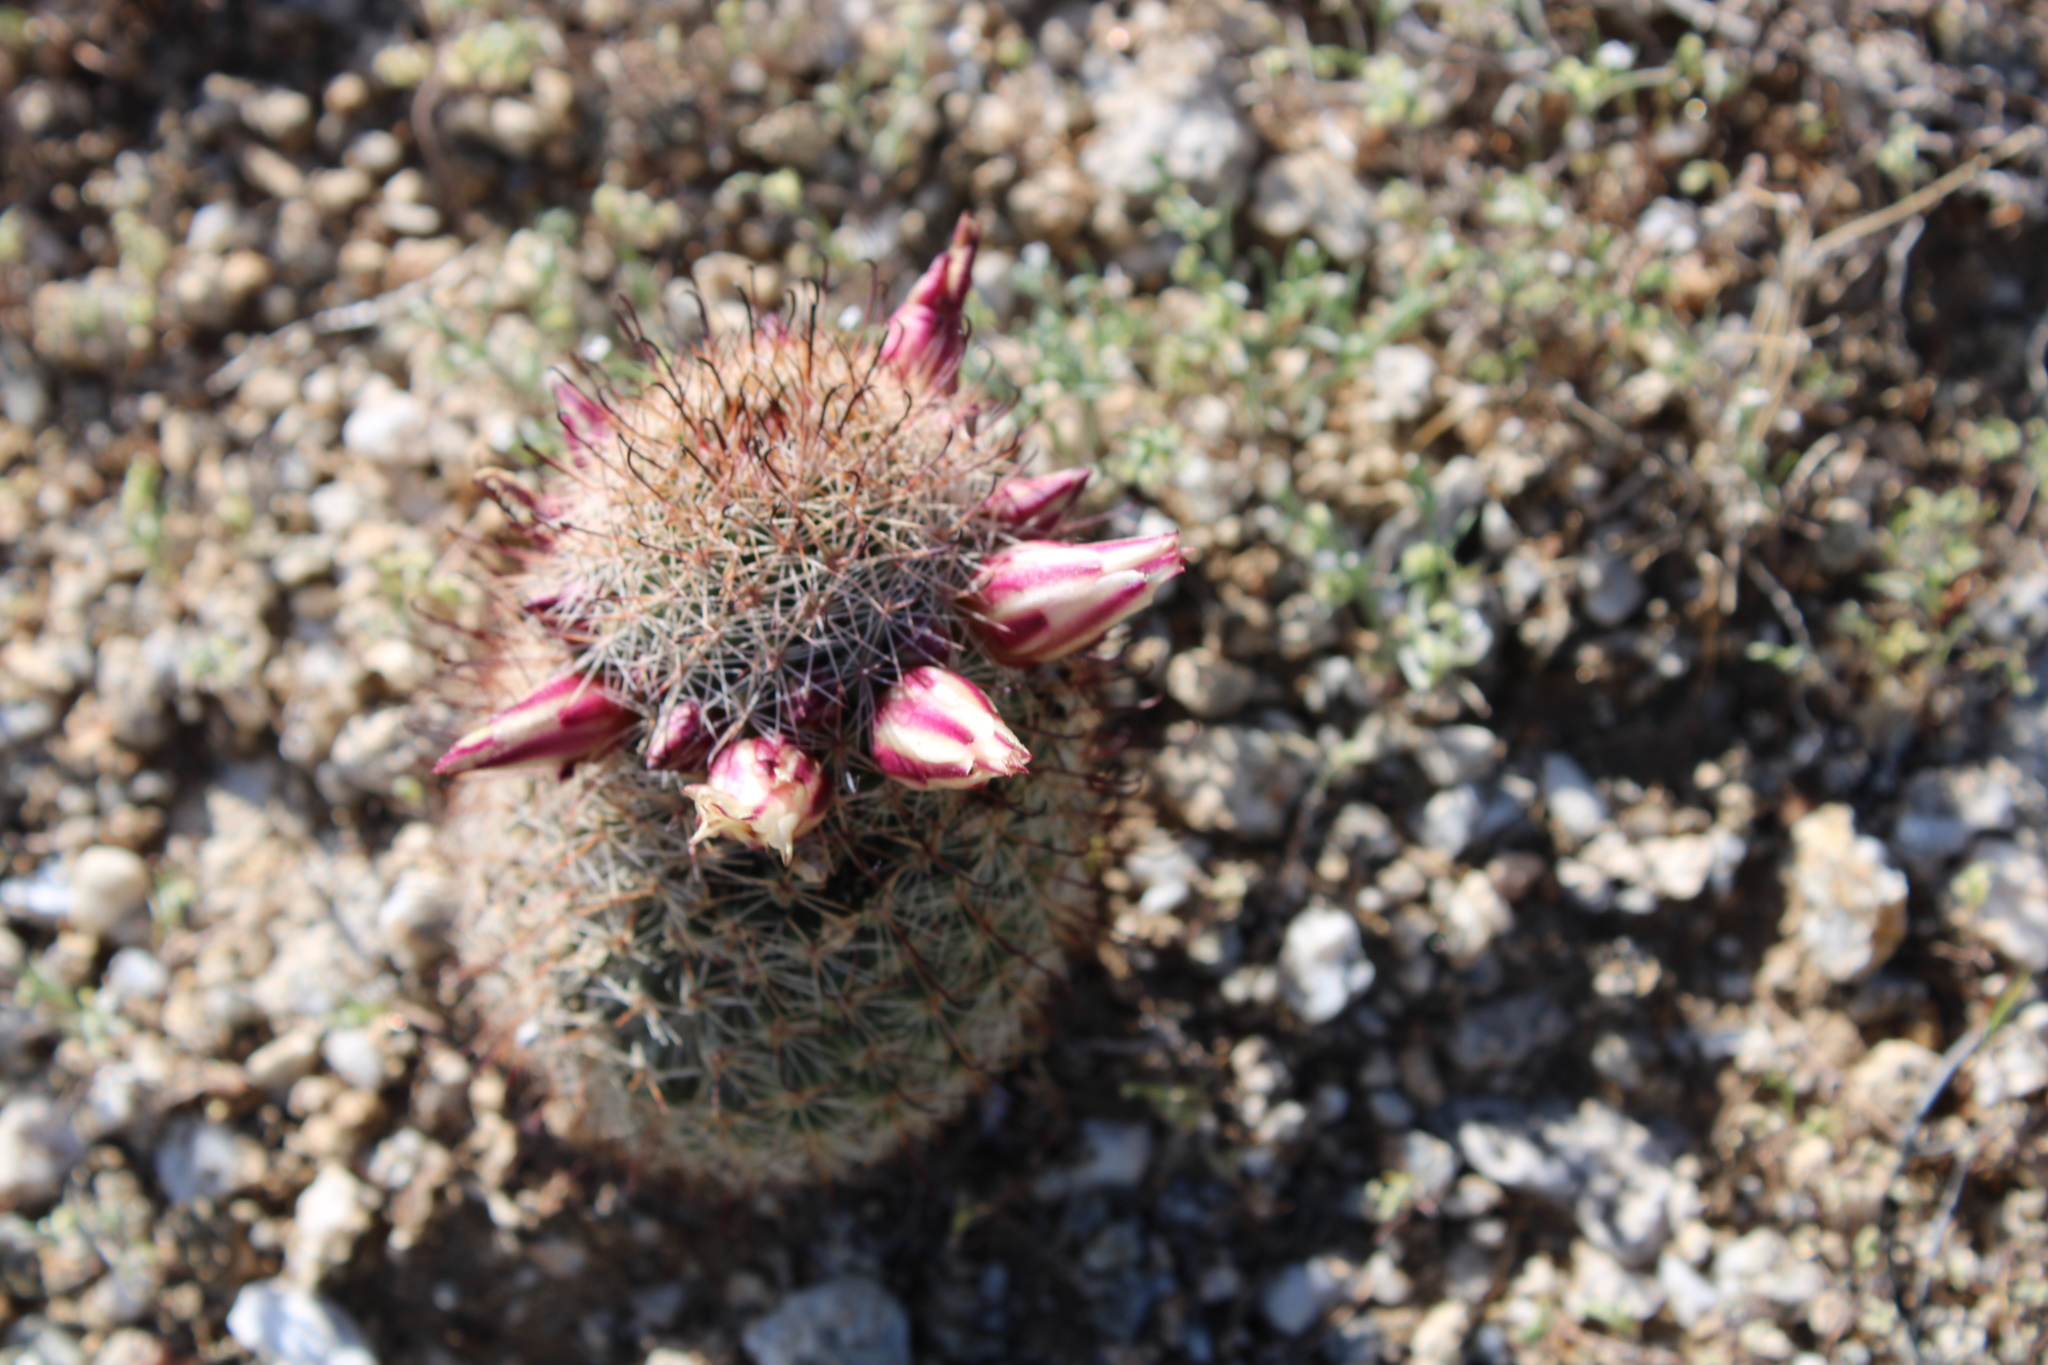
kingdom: Plantae
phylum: Tracheophyta
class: Magnoliopsida
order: Caryophyllales
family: Cactaceae
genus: Cochemiea
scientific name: Cochemiea dioica
